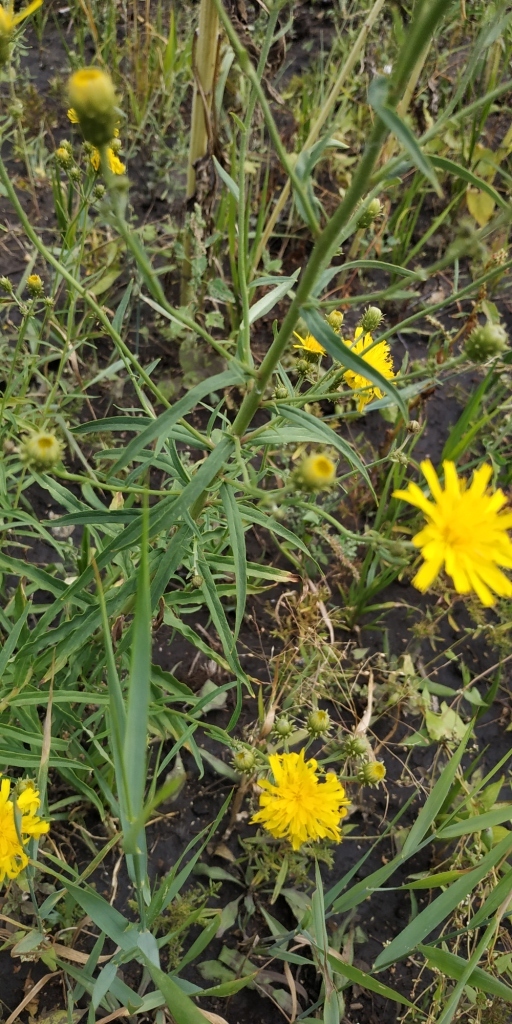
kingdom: Plantae
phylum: Tracheophyta
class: Magnoliopsida
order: Asterales
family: Asteraceae
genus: Hieracium
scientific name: Hieracium umbellatum
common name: Northern hawkweed
